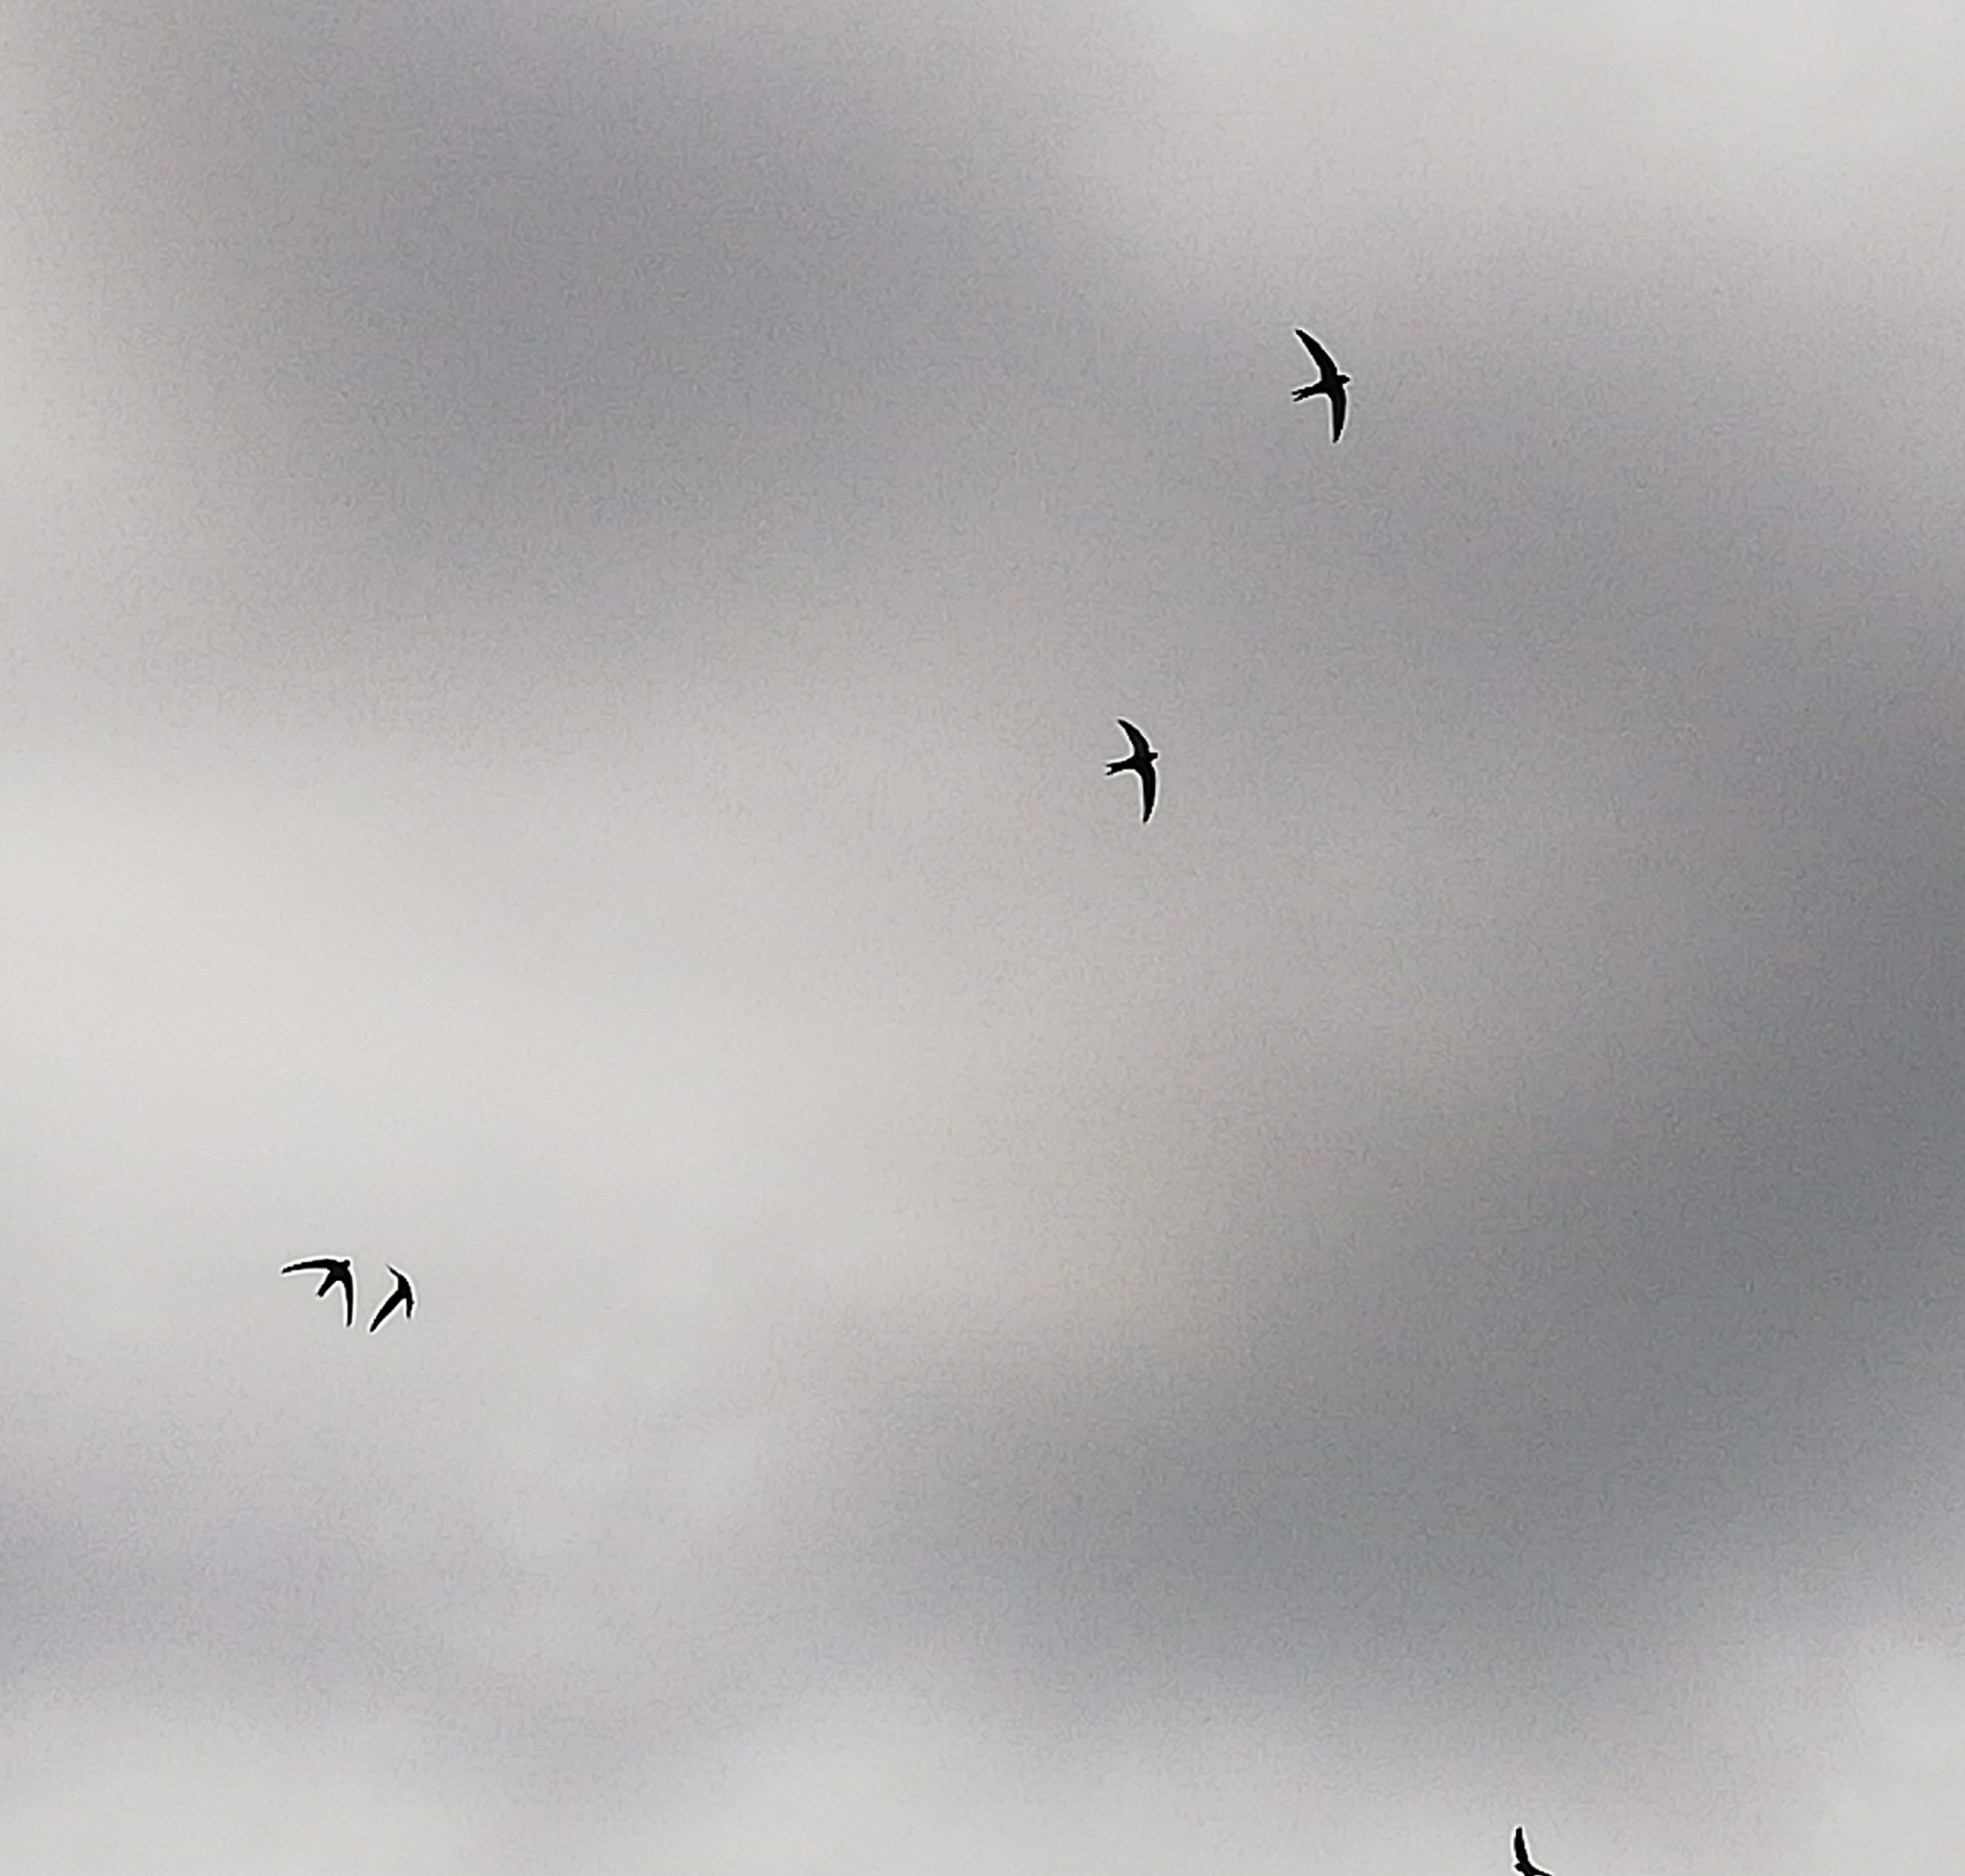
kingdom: Animalia
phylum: Chordata
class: Aves
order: Apodiformes
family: Apodidae
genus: Apus
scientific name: Apus apus
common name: Common swift
